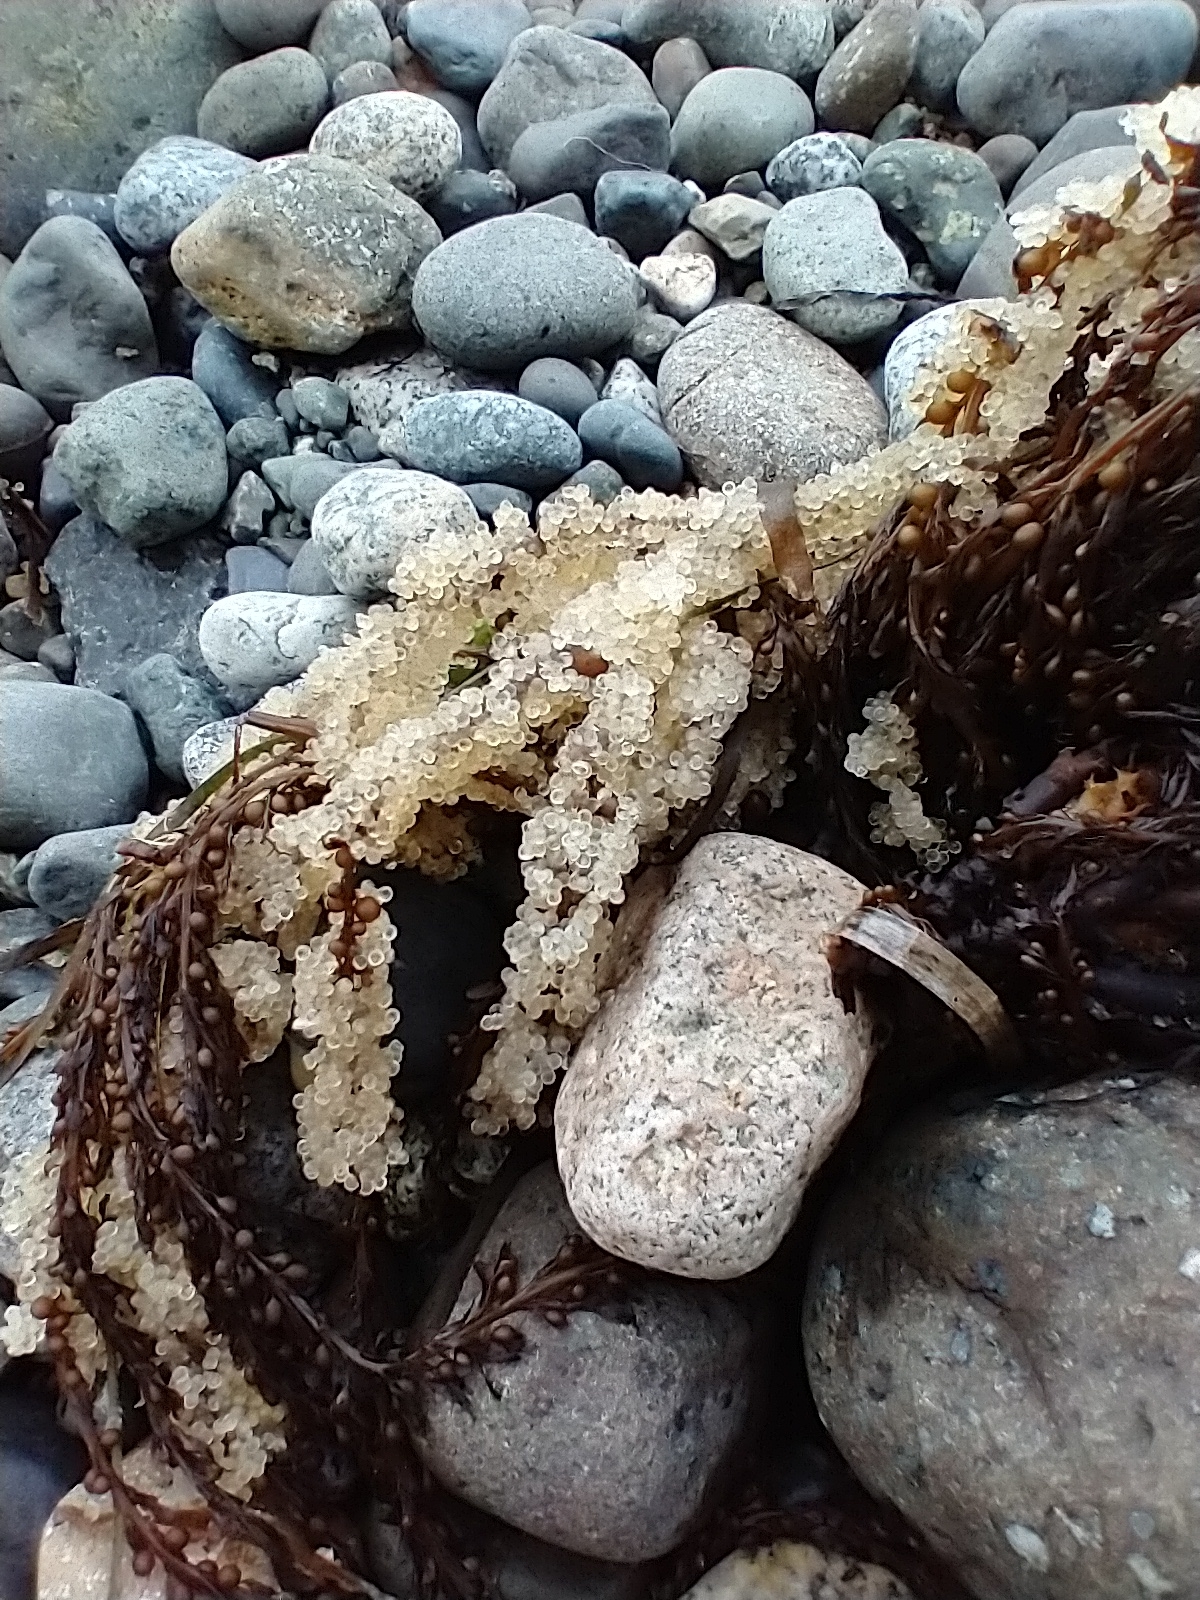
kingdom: Animalia
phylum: Chordata
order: Clupeiformes
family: Clupeidae
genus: Clupea
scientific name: Clupea pallasii
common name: Pacific herring
